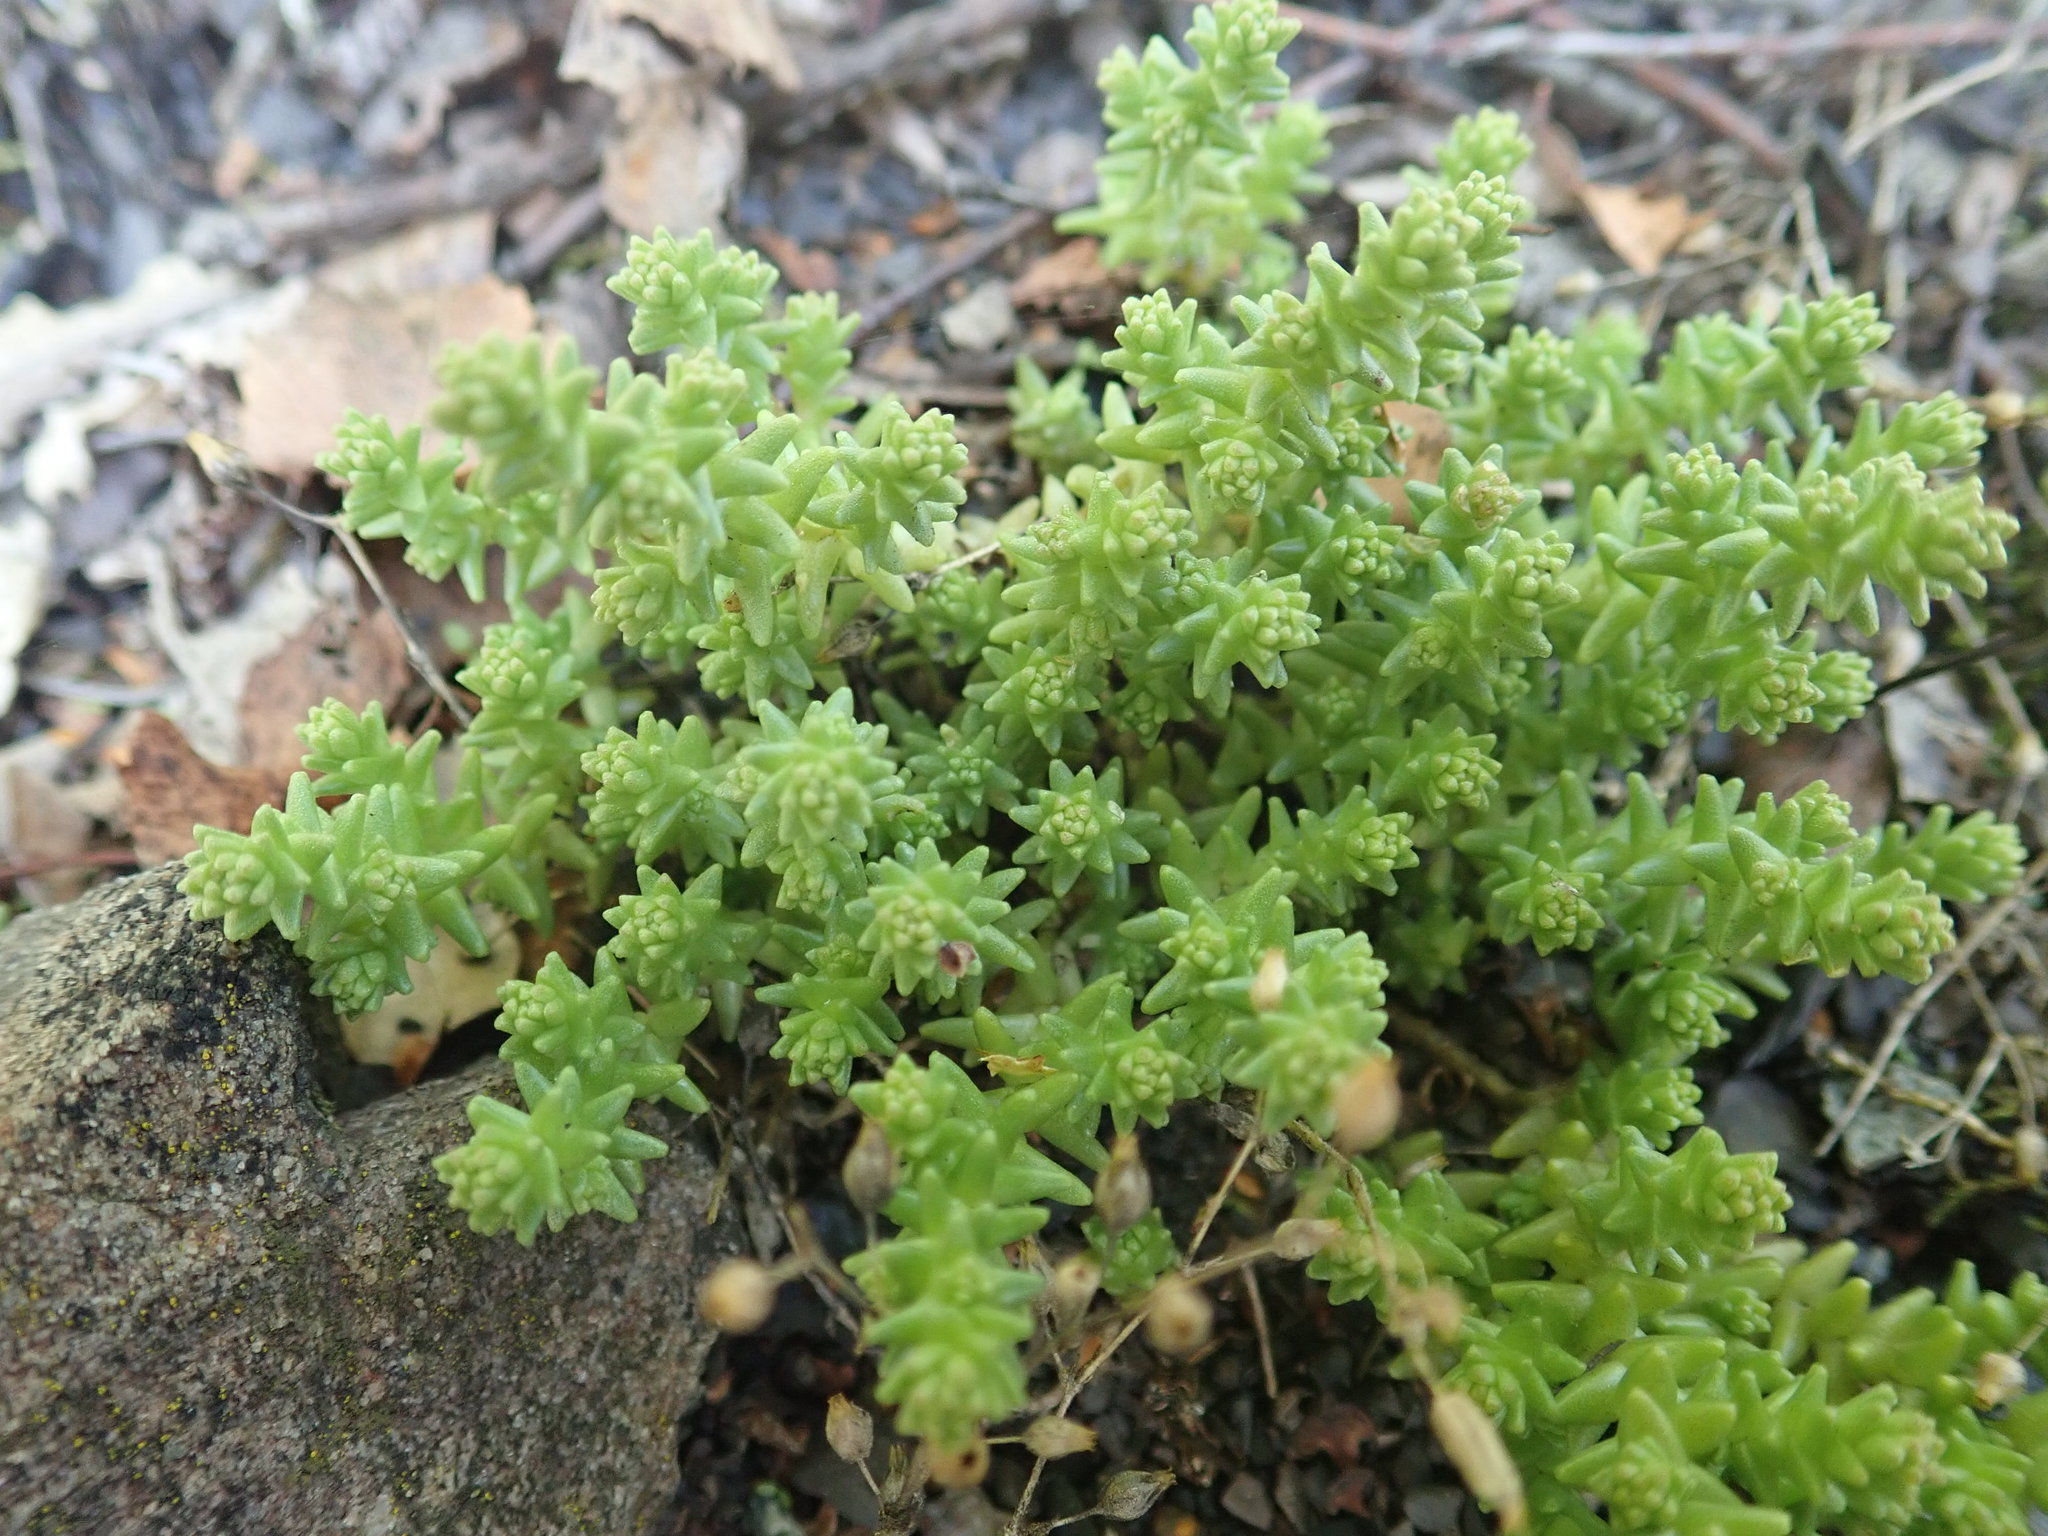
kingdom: Plantae
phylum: Tracheophyta
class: Magnoliopsida
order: Saxifragales
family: Crassulaceae
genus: Sedum
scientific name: Sedum acre
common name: Biting stonecrop
